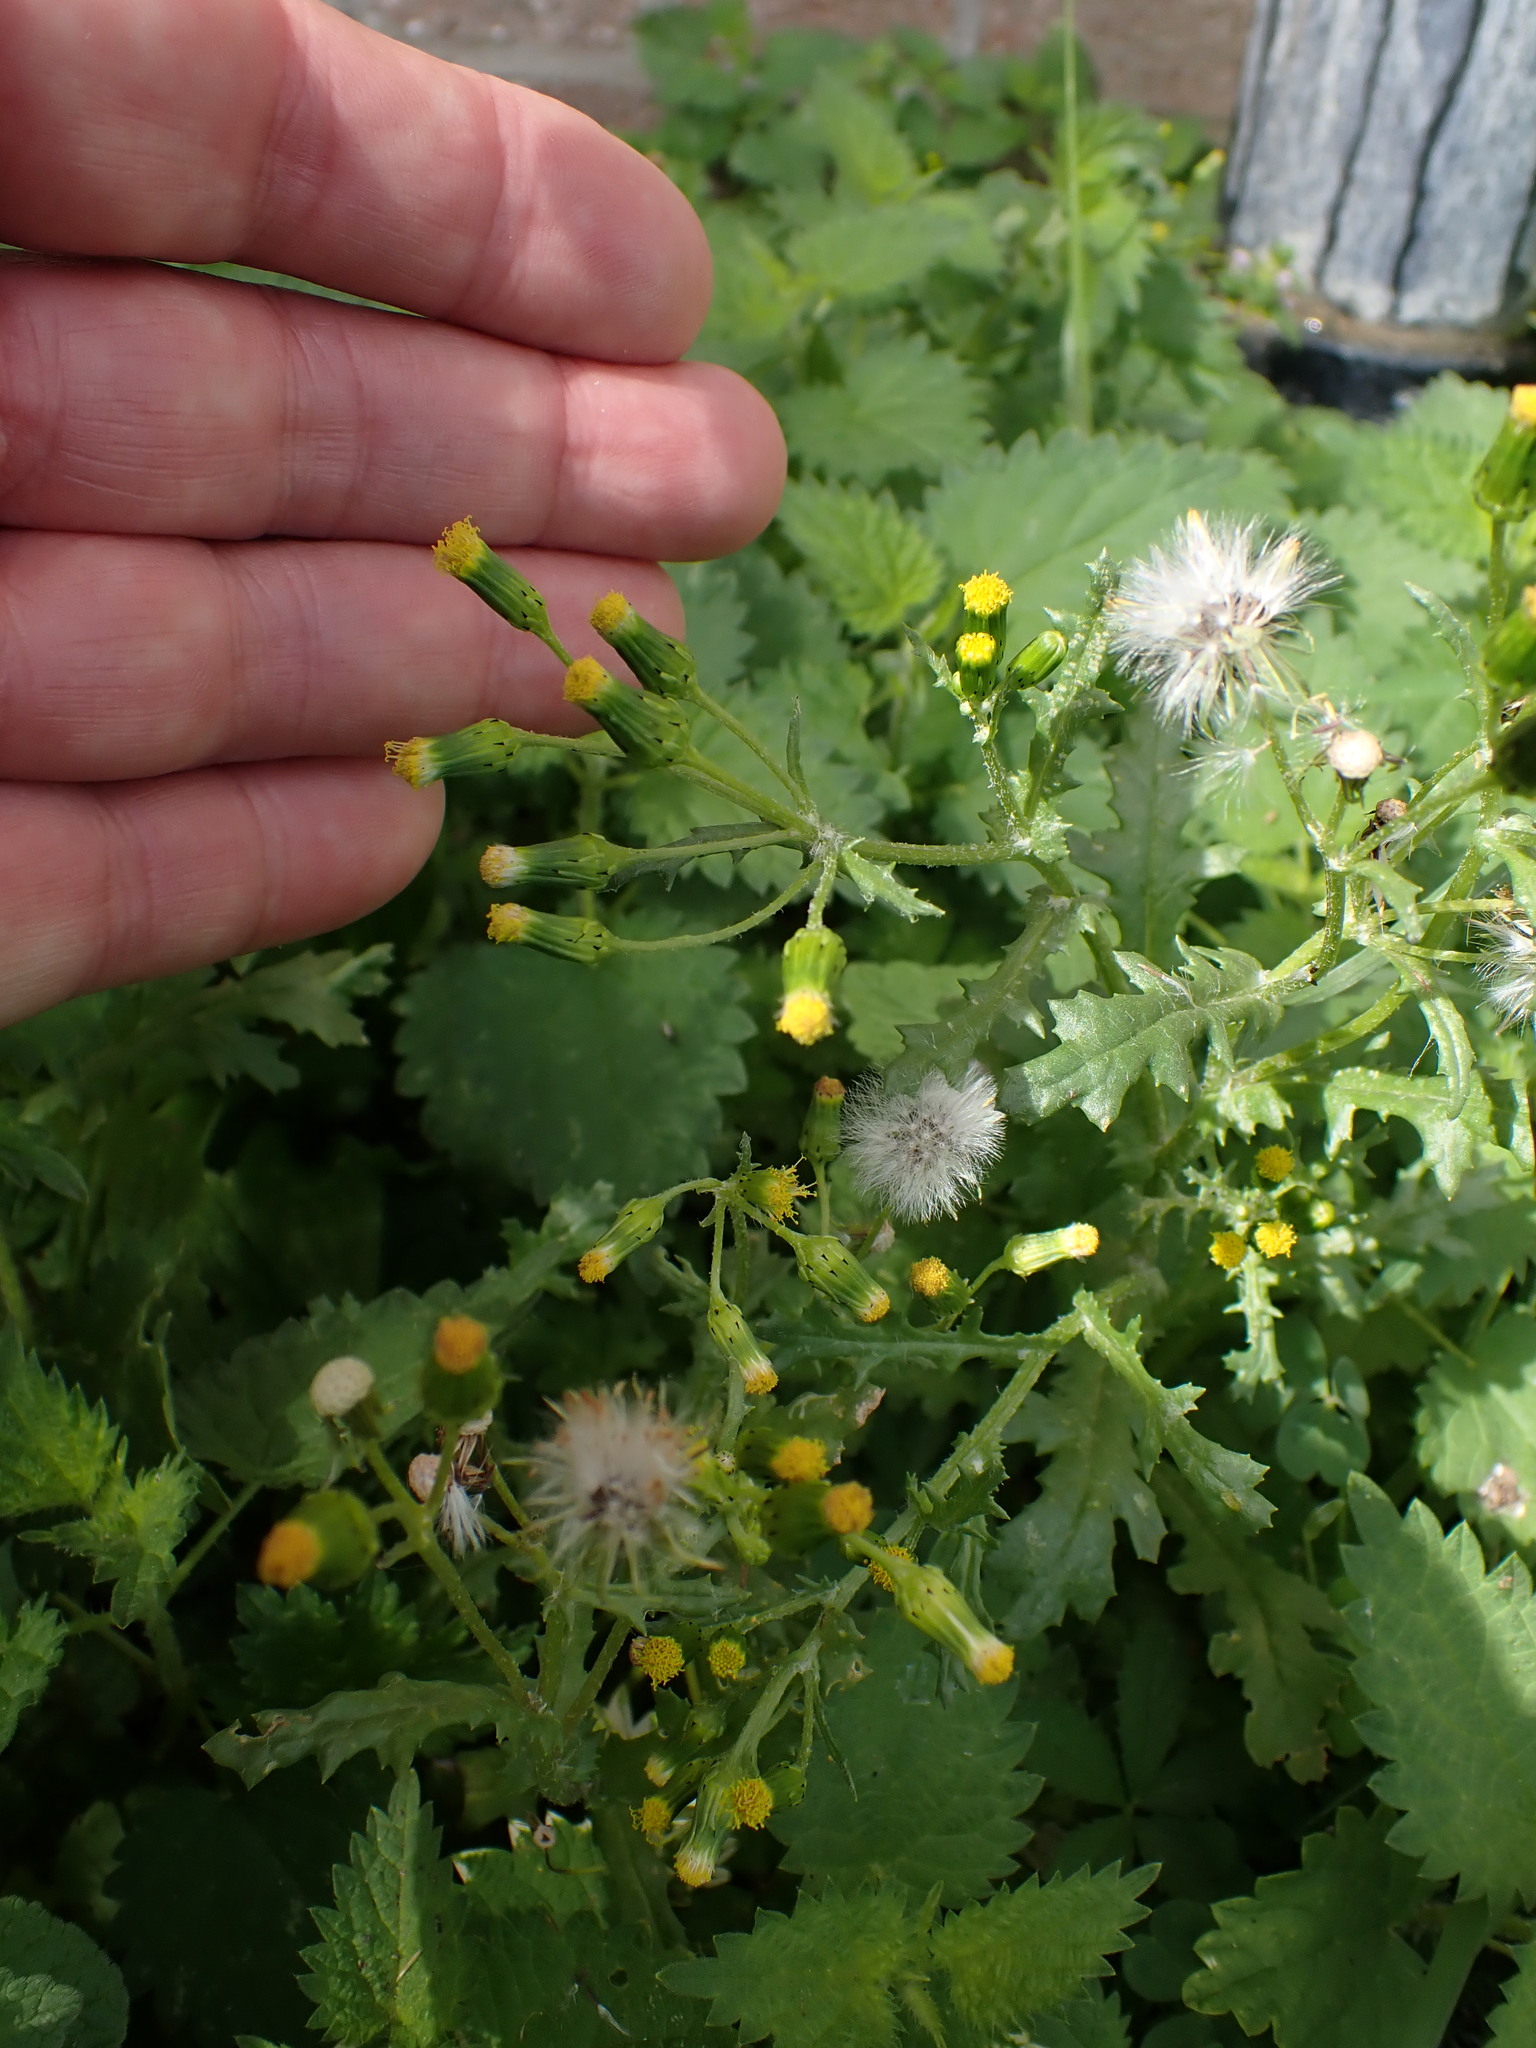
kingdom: Plantae
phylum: Tracheophyta
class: Magnoliopsida
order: Asterales
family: Asteraceae
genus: Senecio
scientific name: Senecio vulgaris
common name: Old-man-in-the-spring
